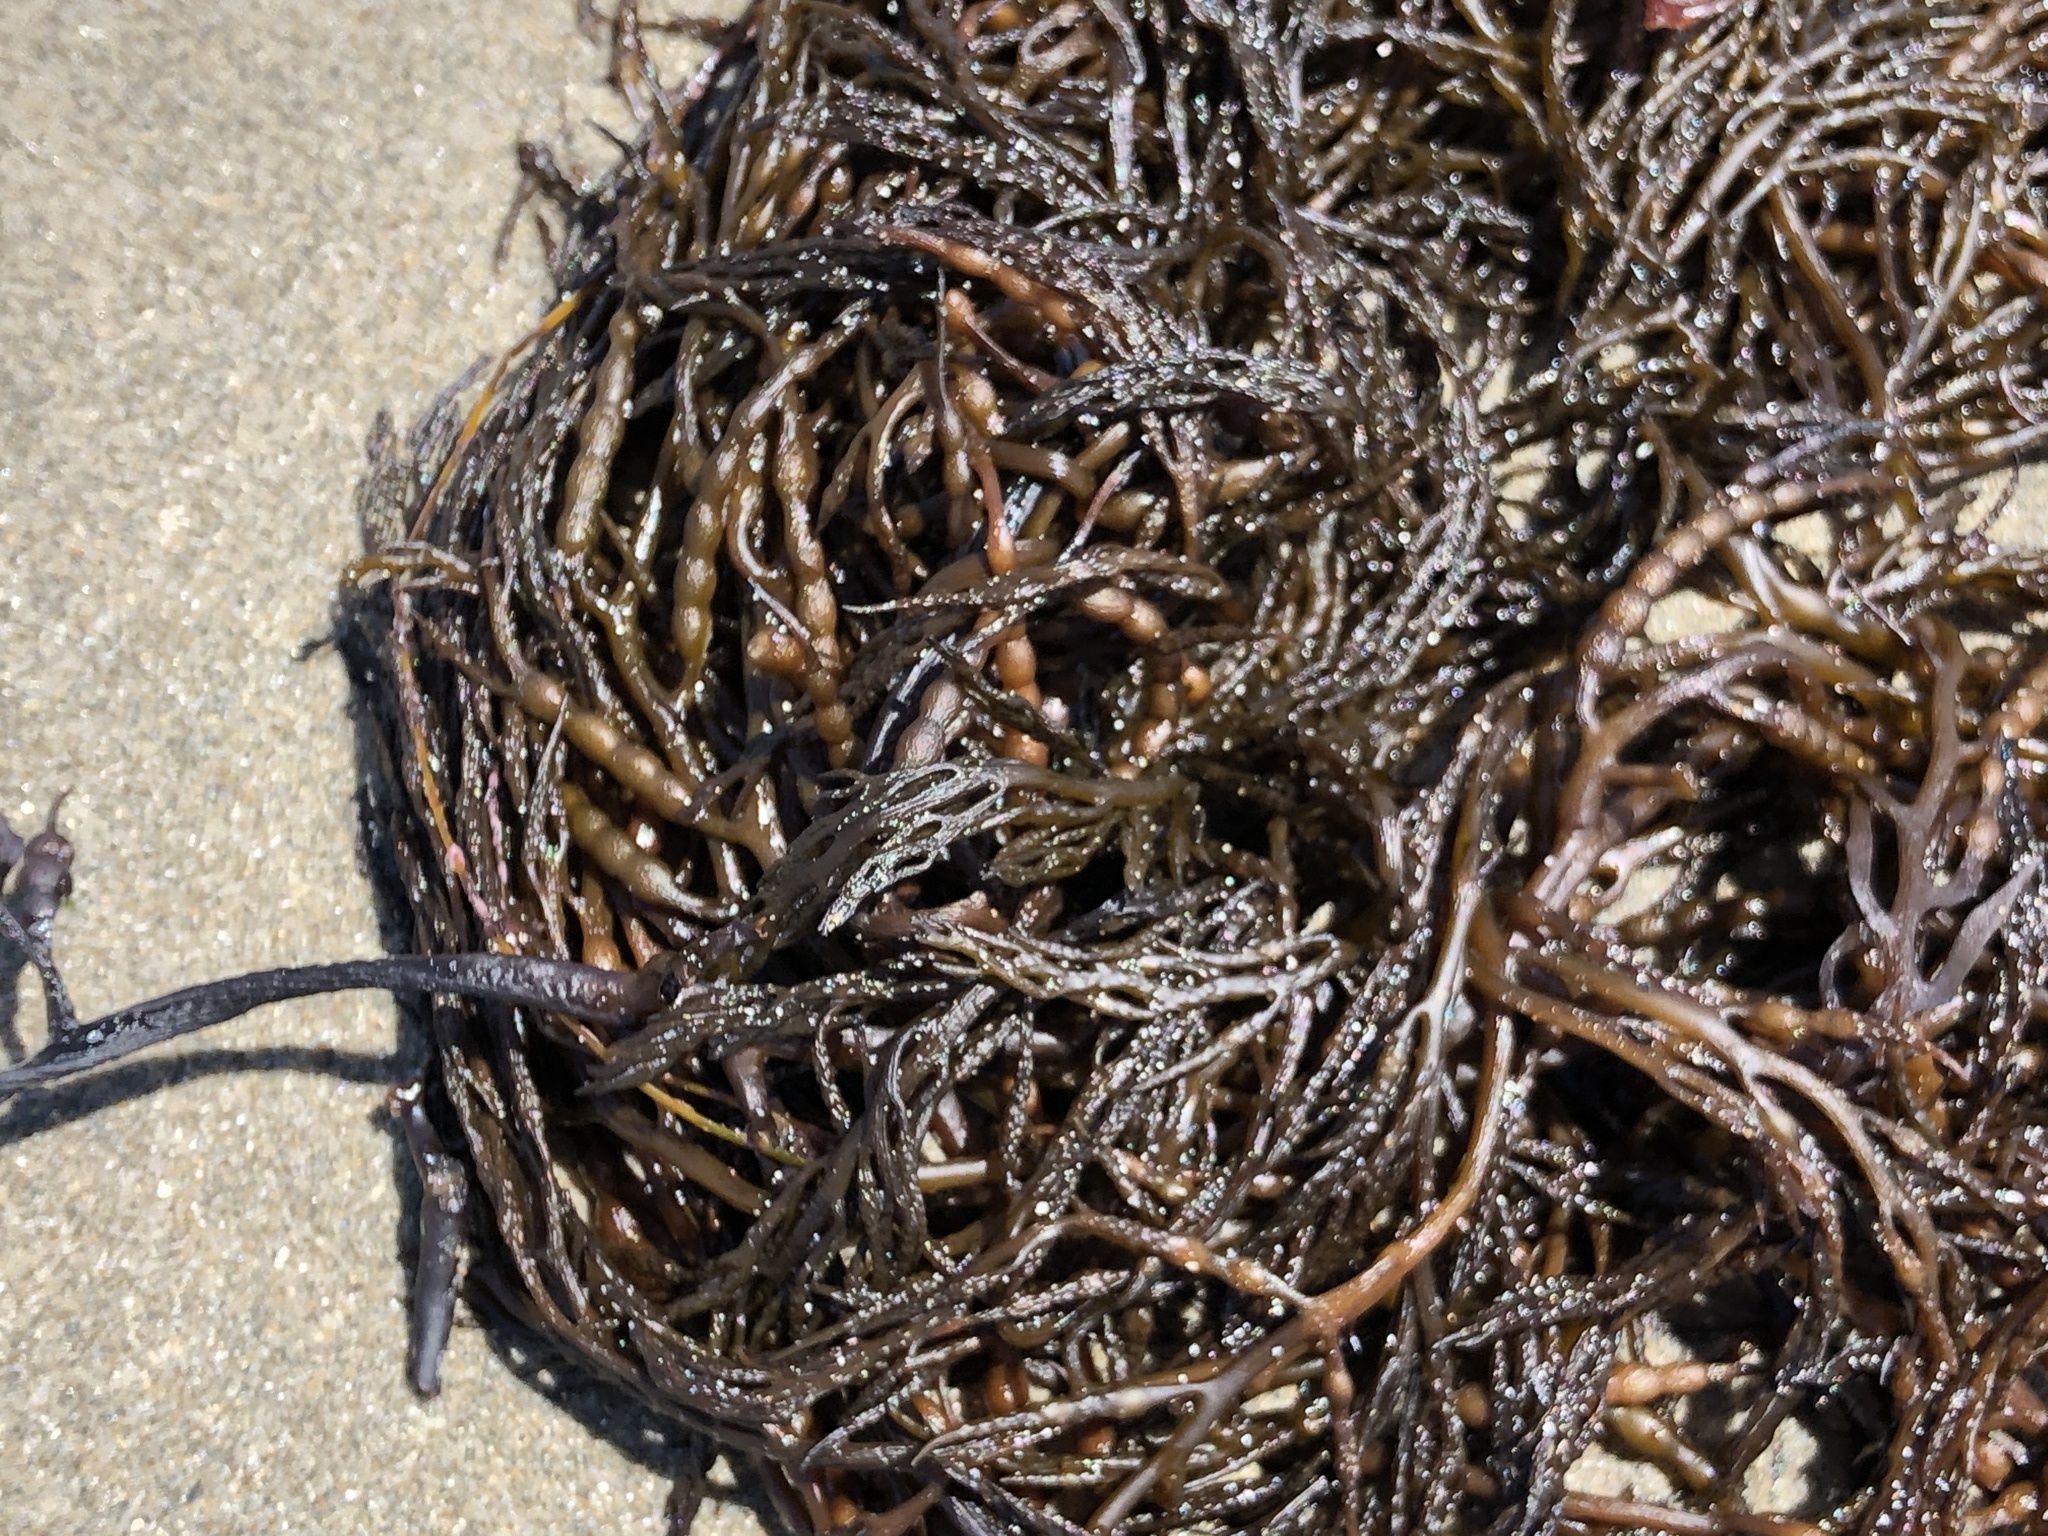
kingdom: Chromista
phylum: Ochrophyta
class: Phaeophyceae
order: Fucales
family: Sargassaceae
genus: Stephanocystis
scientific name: Stephanocystis
